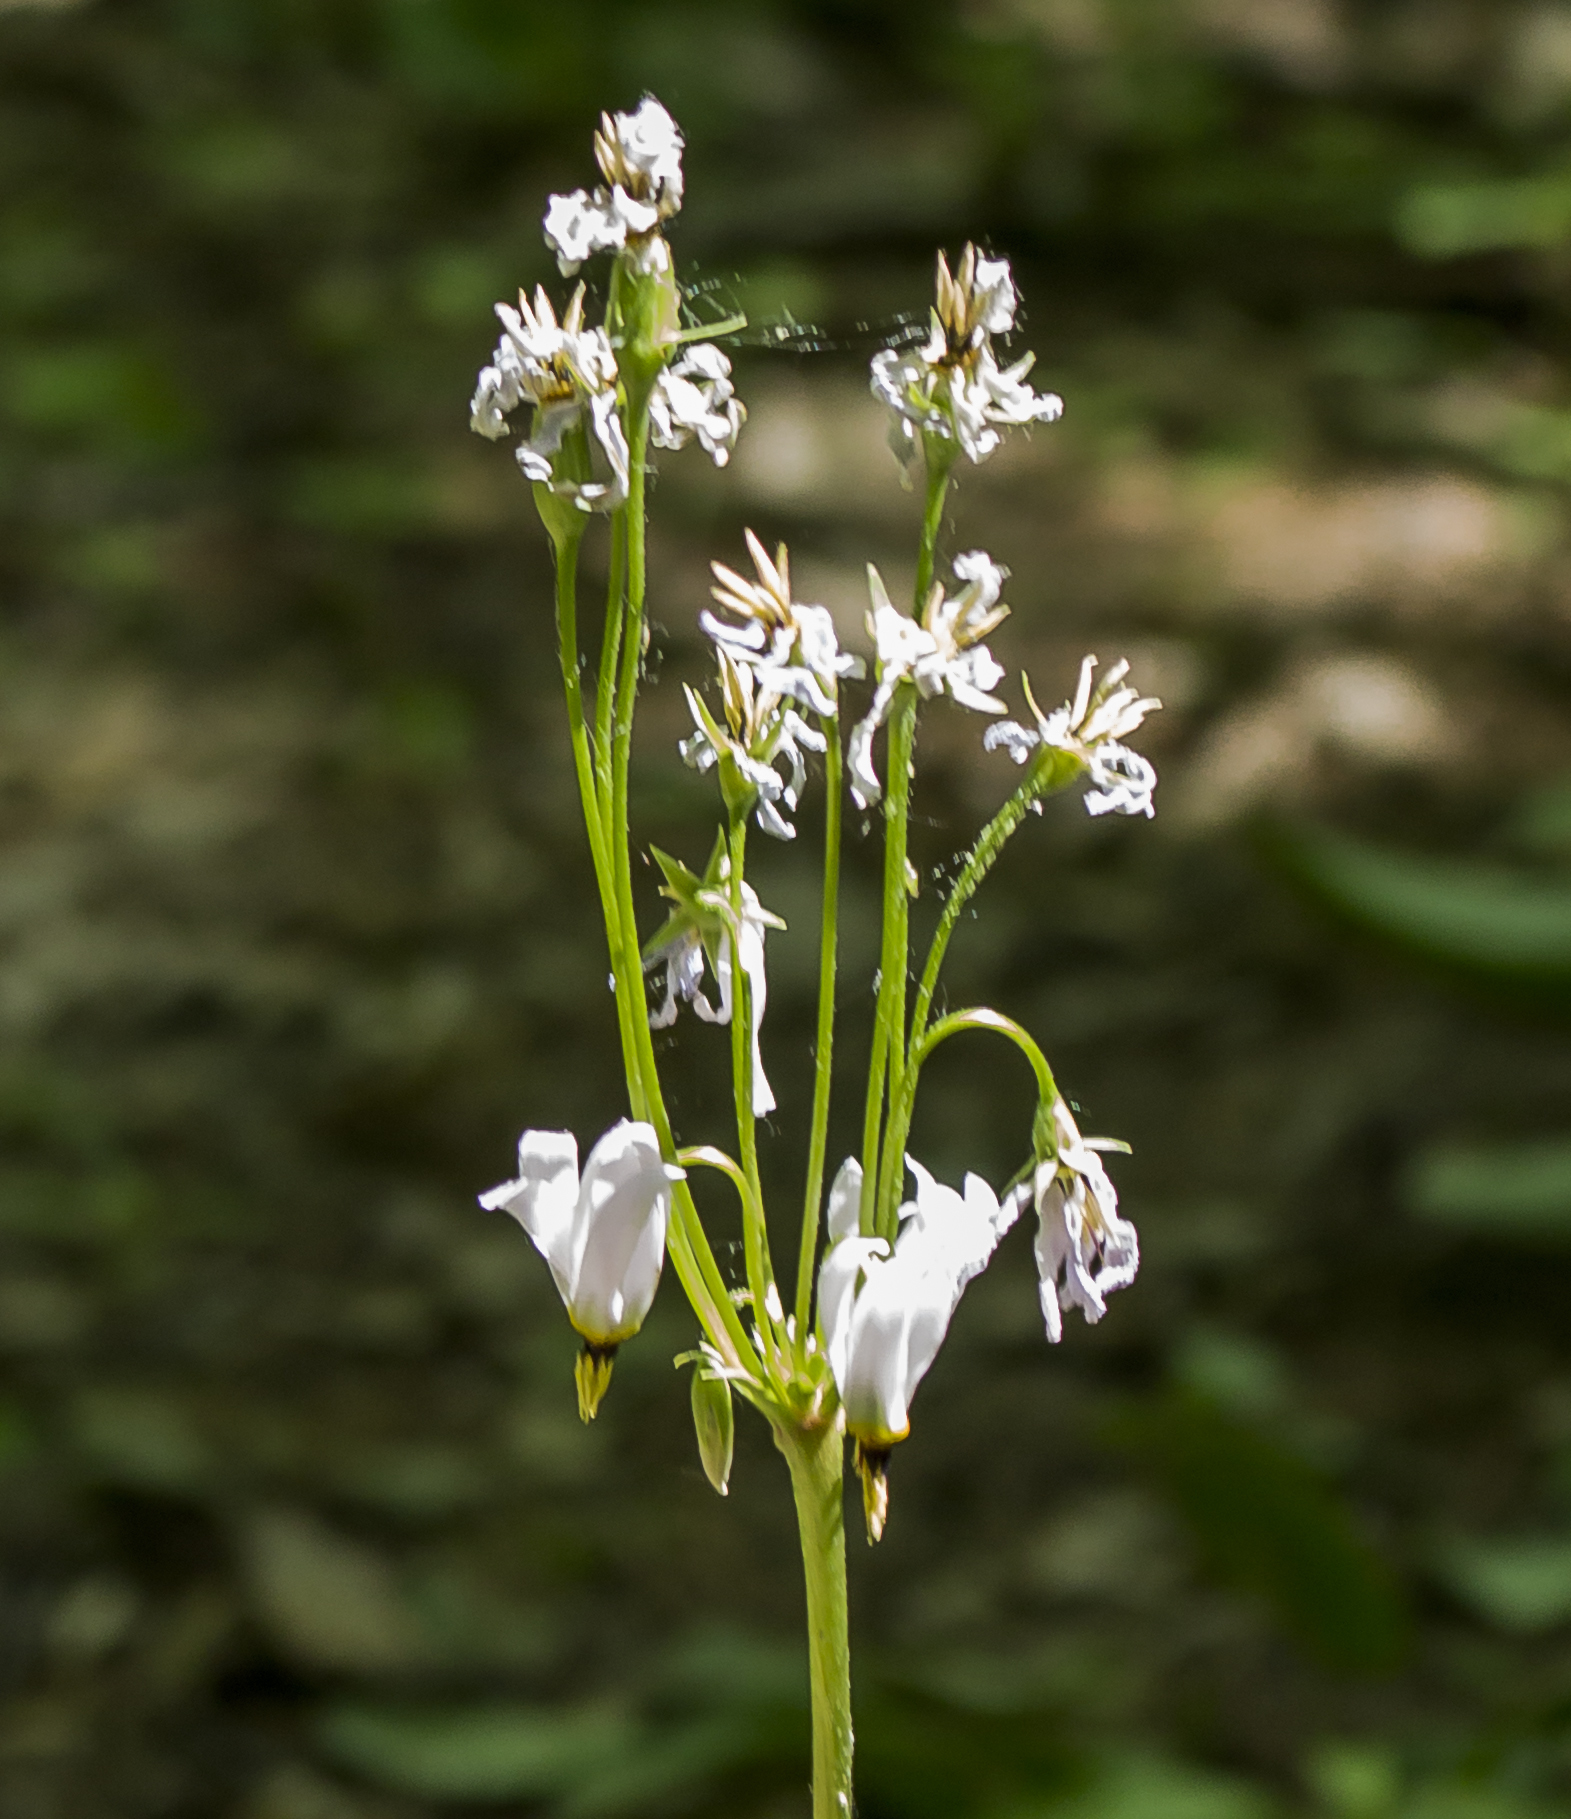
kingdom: Plantae
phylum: Tracheophyta
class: Magnoliopsida
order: Ericales
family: Primulaceae
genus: Dodecatheon
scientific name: Dodecatheon meadia
